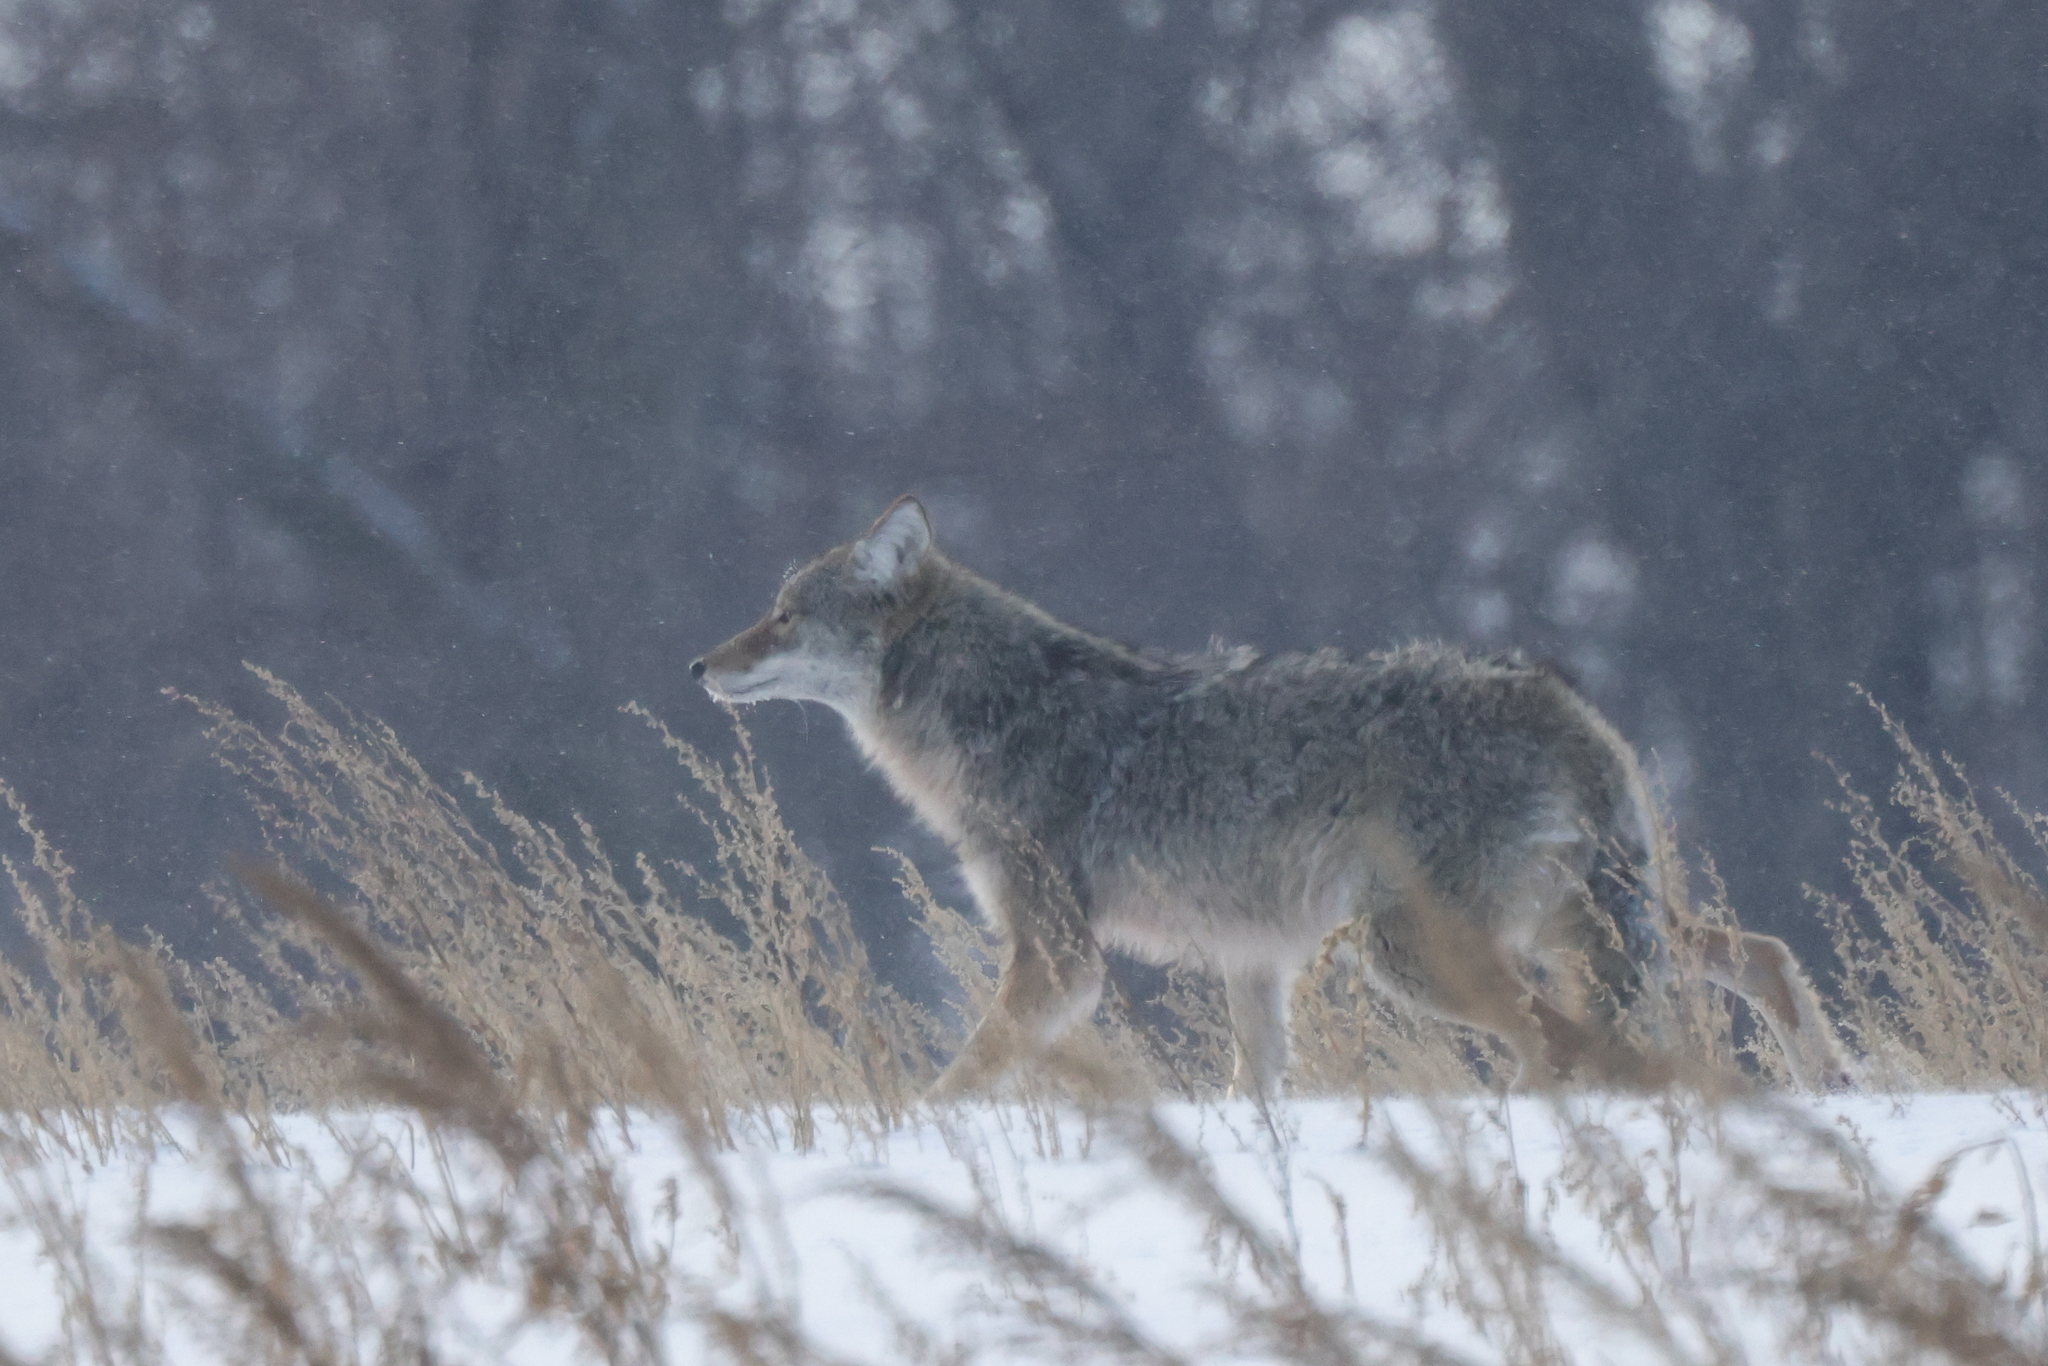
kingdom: Animalia
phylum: Chordata
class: Mammalia
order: Carnivora
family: Canidae
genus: Canis
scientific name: Canis latrans
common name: Coyote
